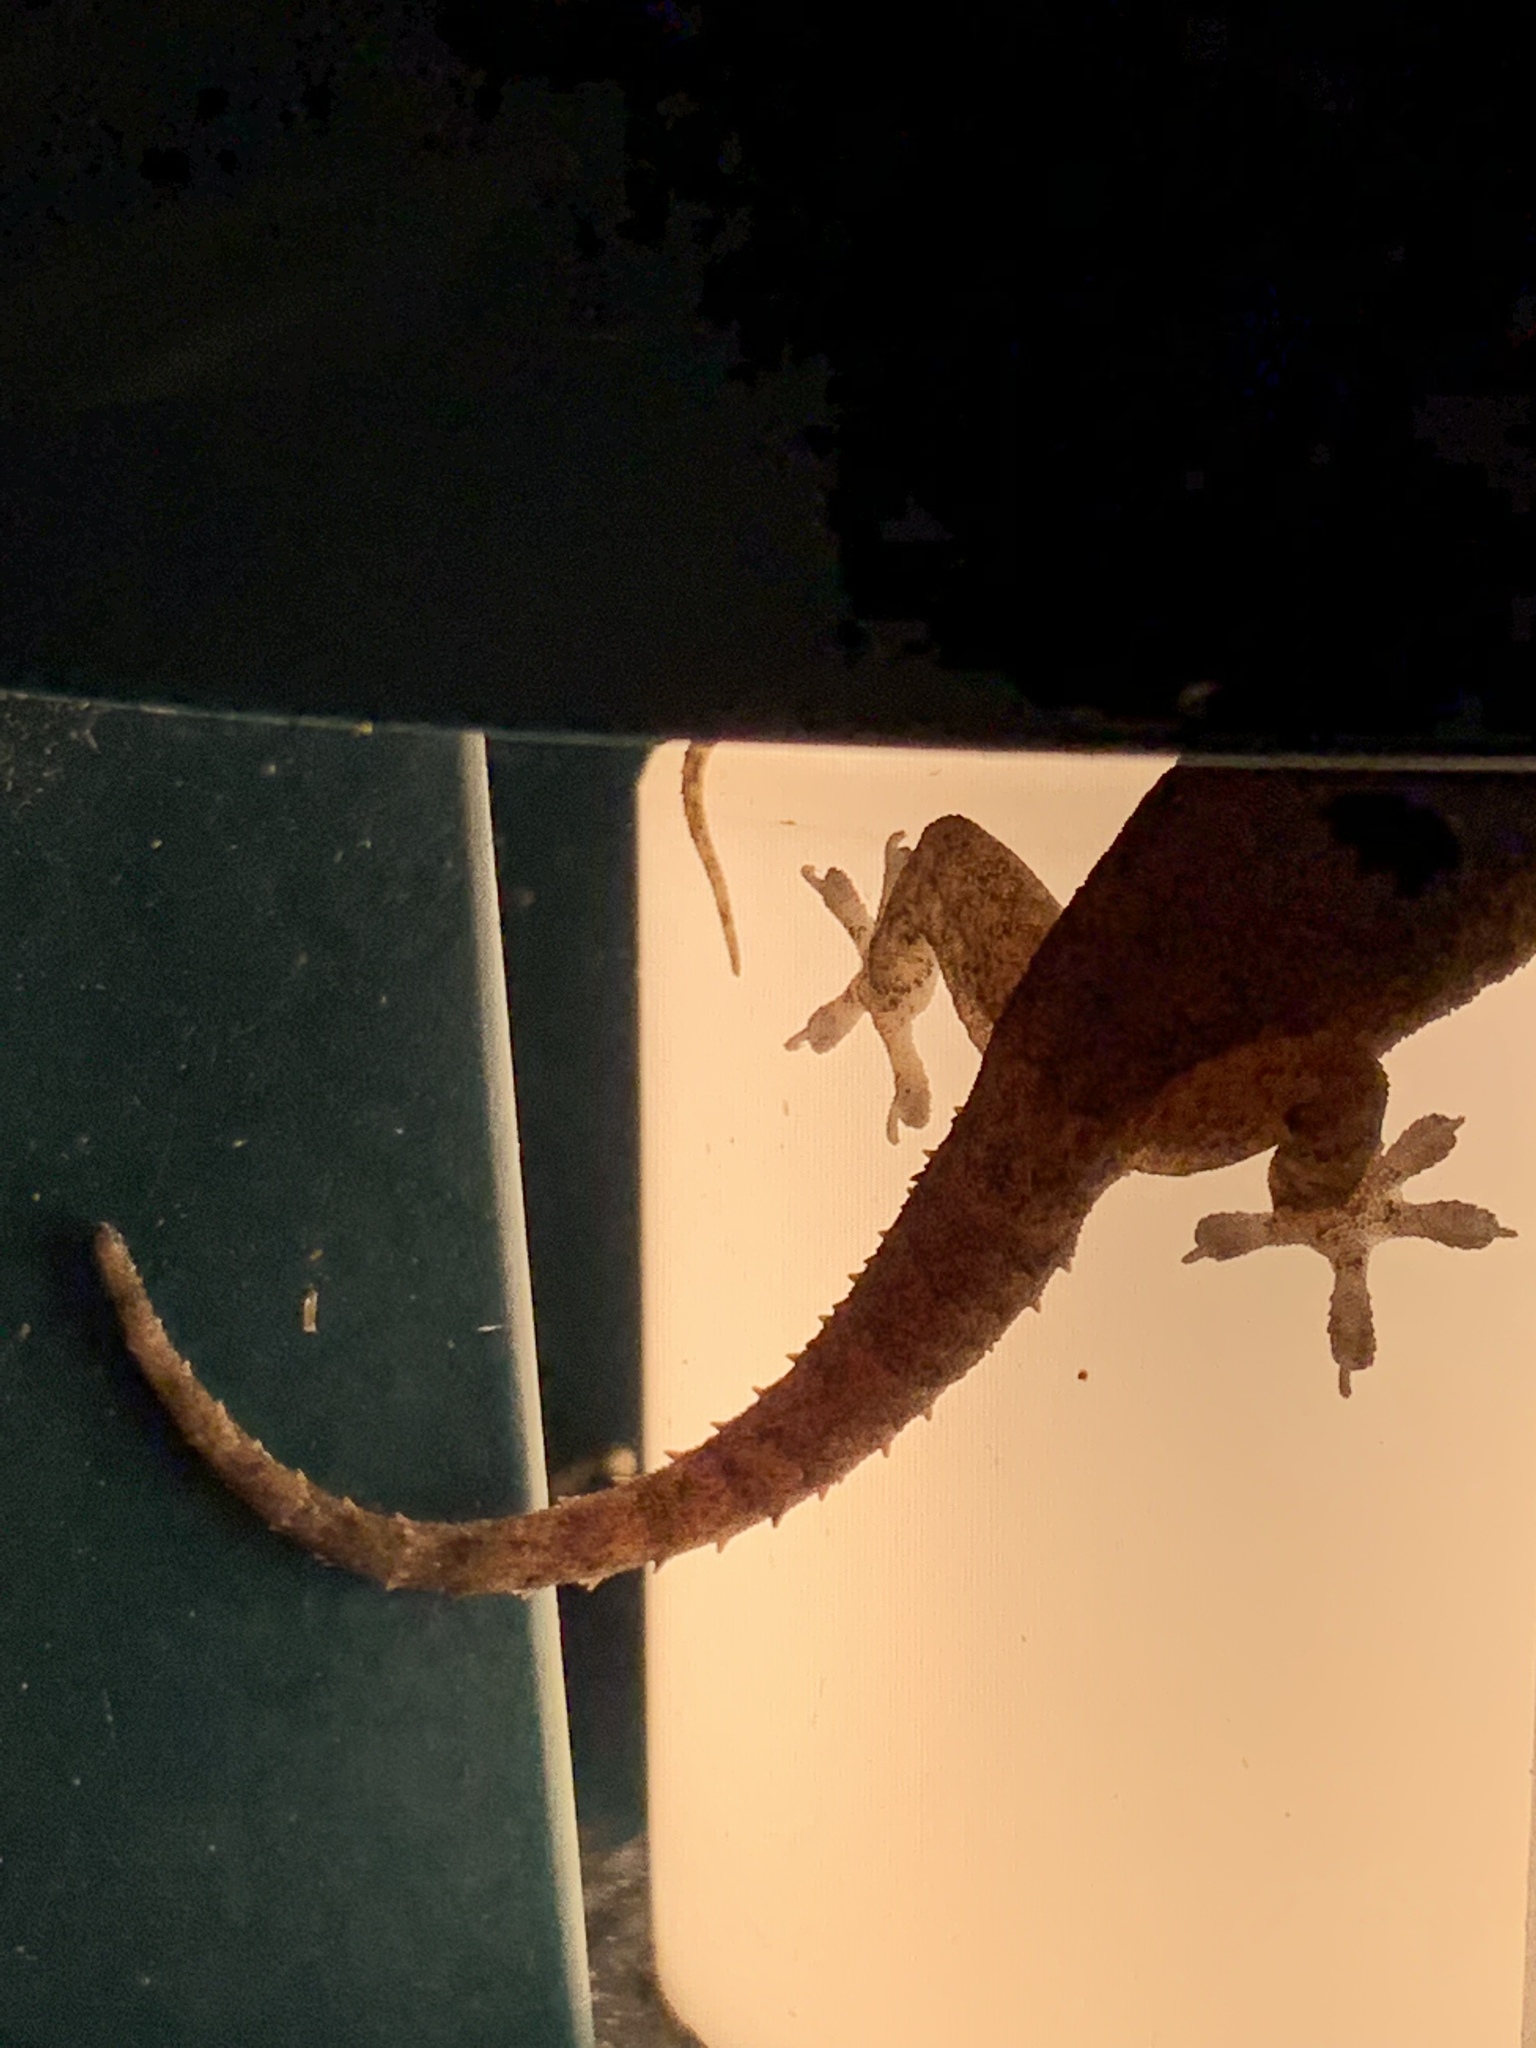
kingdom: Animalia
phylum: Chordata
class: Squamata
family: Gekkonidae
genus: Hemidactylus
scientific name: Hemidactylus frenatus
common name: Common house gecko
